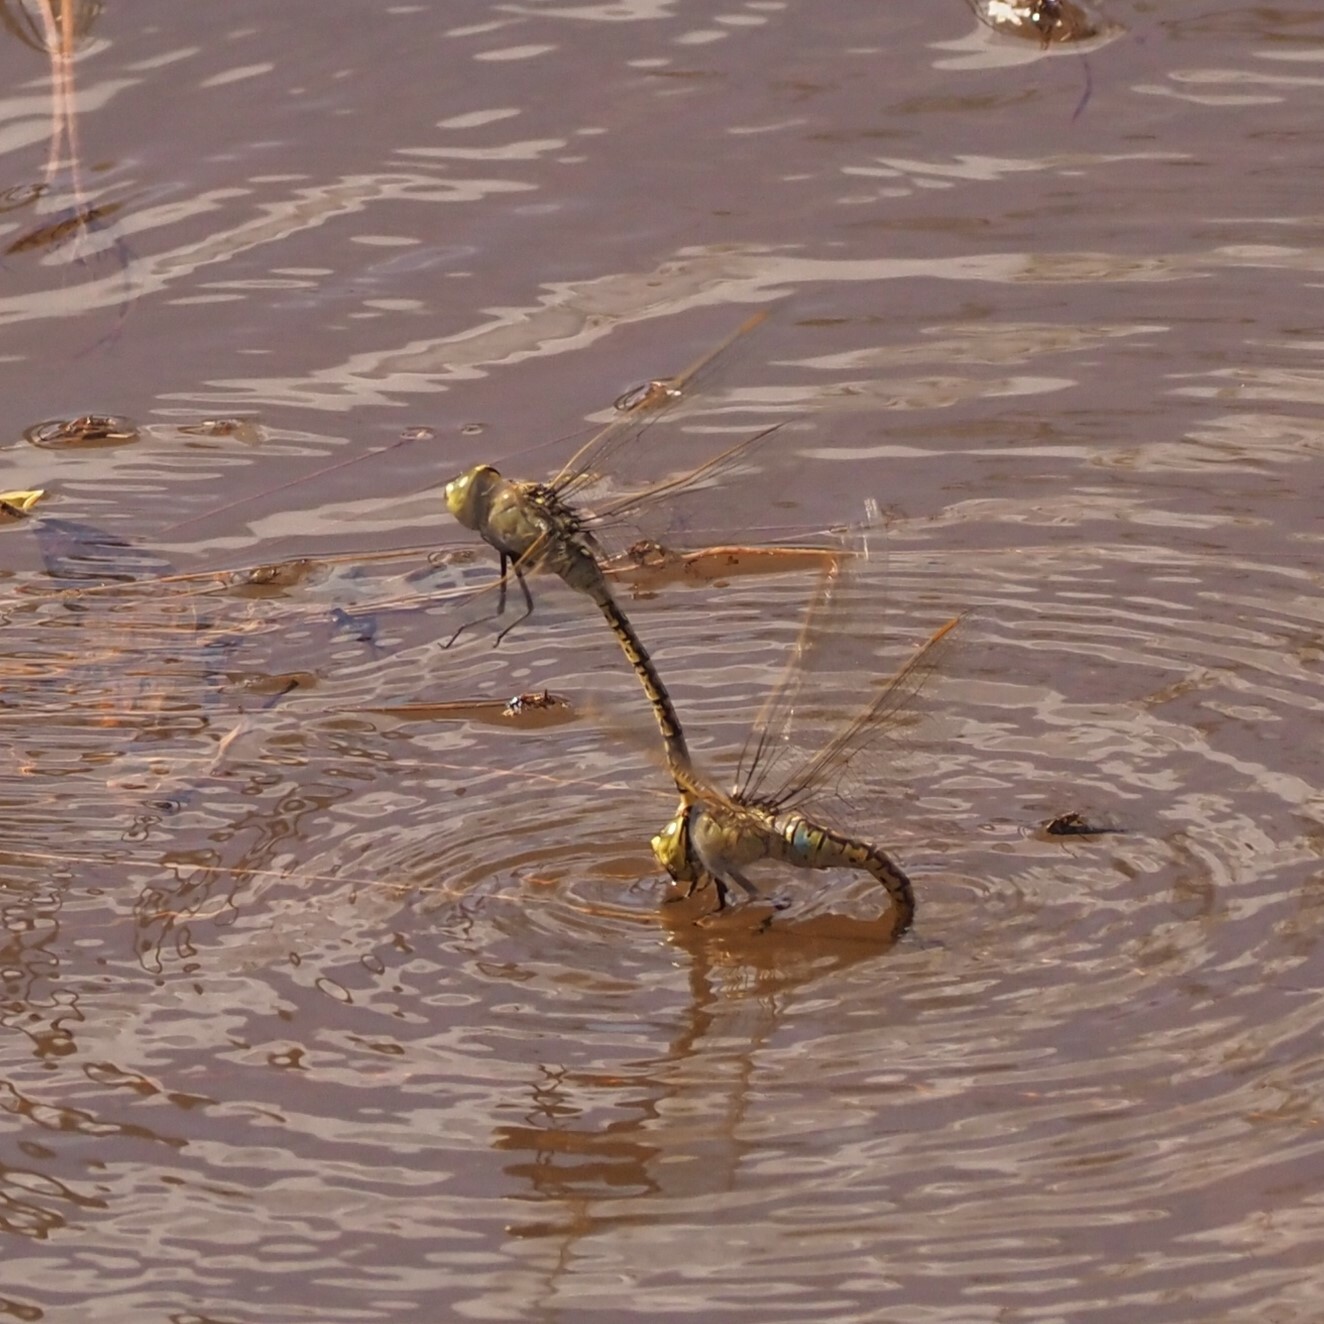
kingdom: Animalia
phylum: Arthropoda
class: Insecta
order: Odonata
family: Aeshnidae
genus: Anax
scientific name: Anax papuensis
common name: Australian emperor
